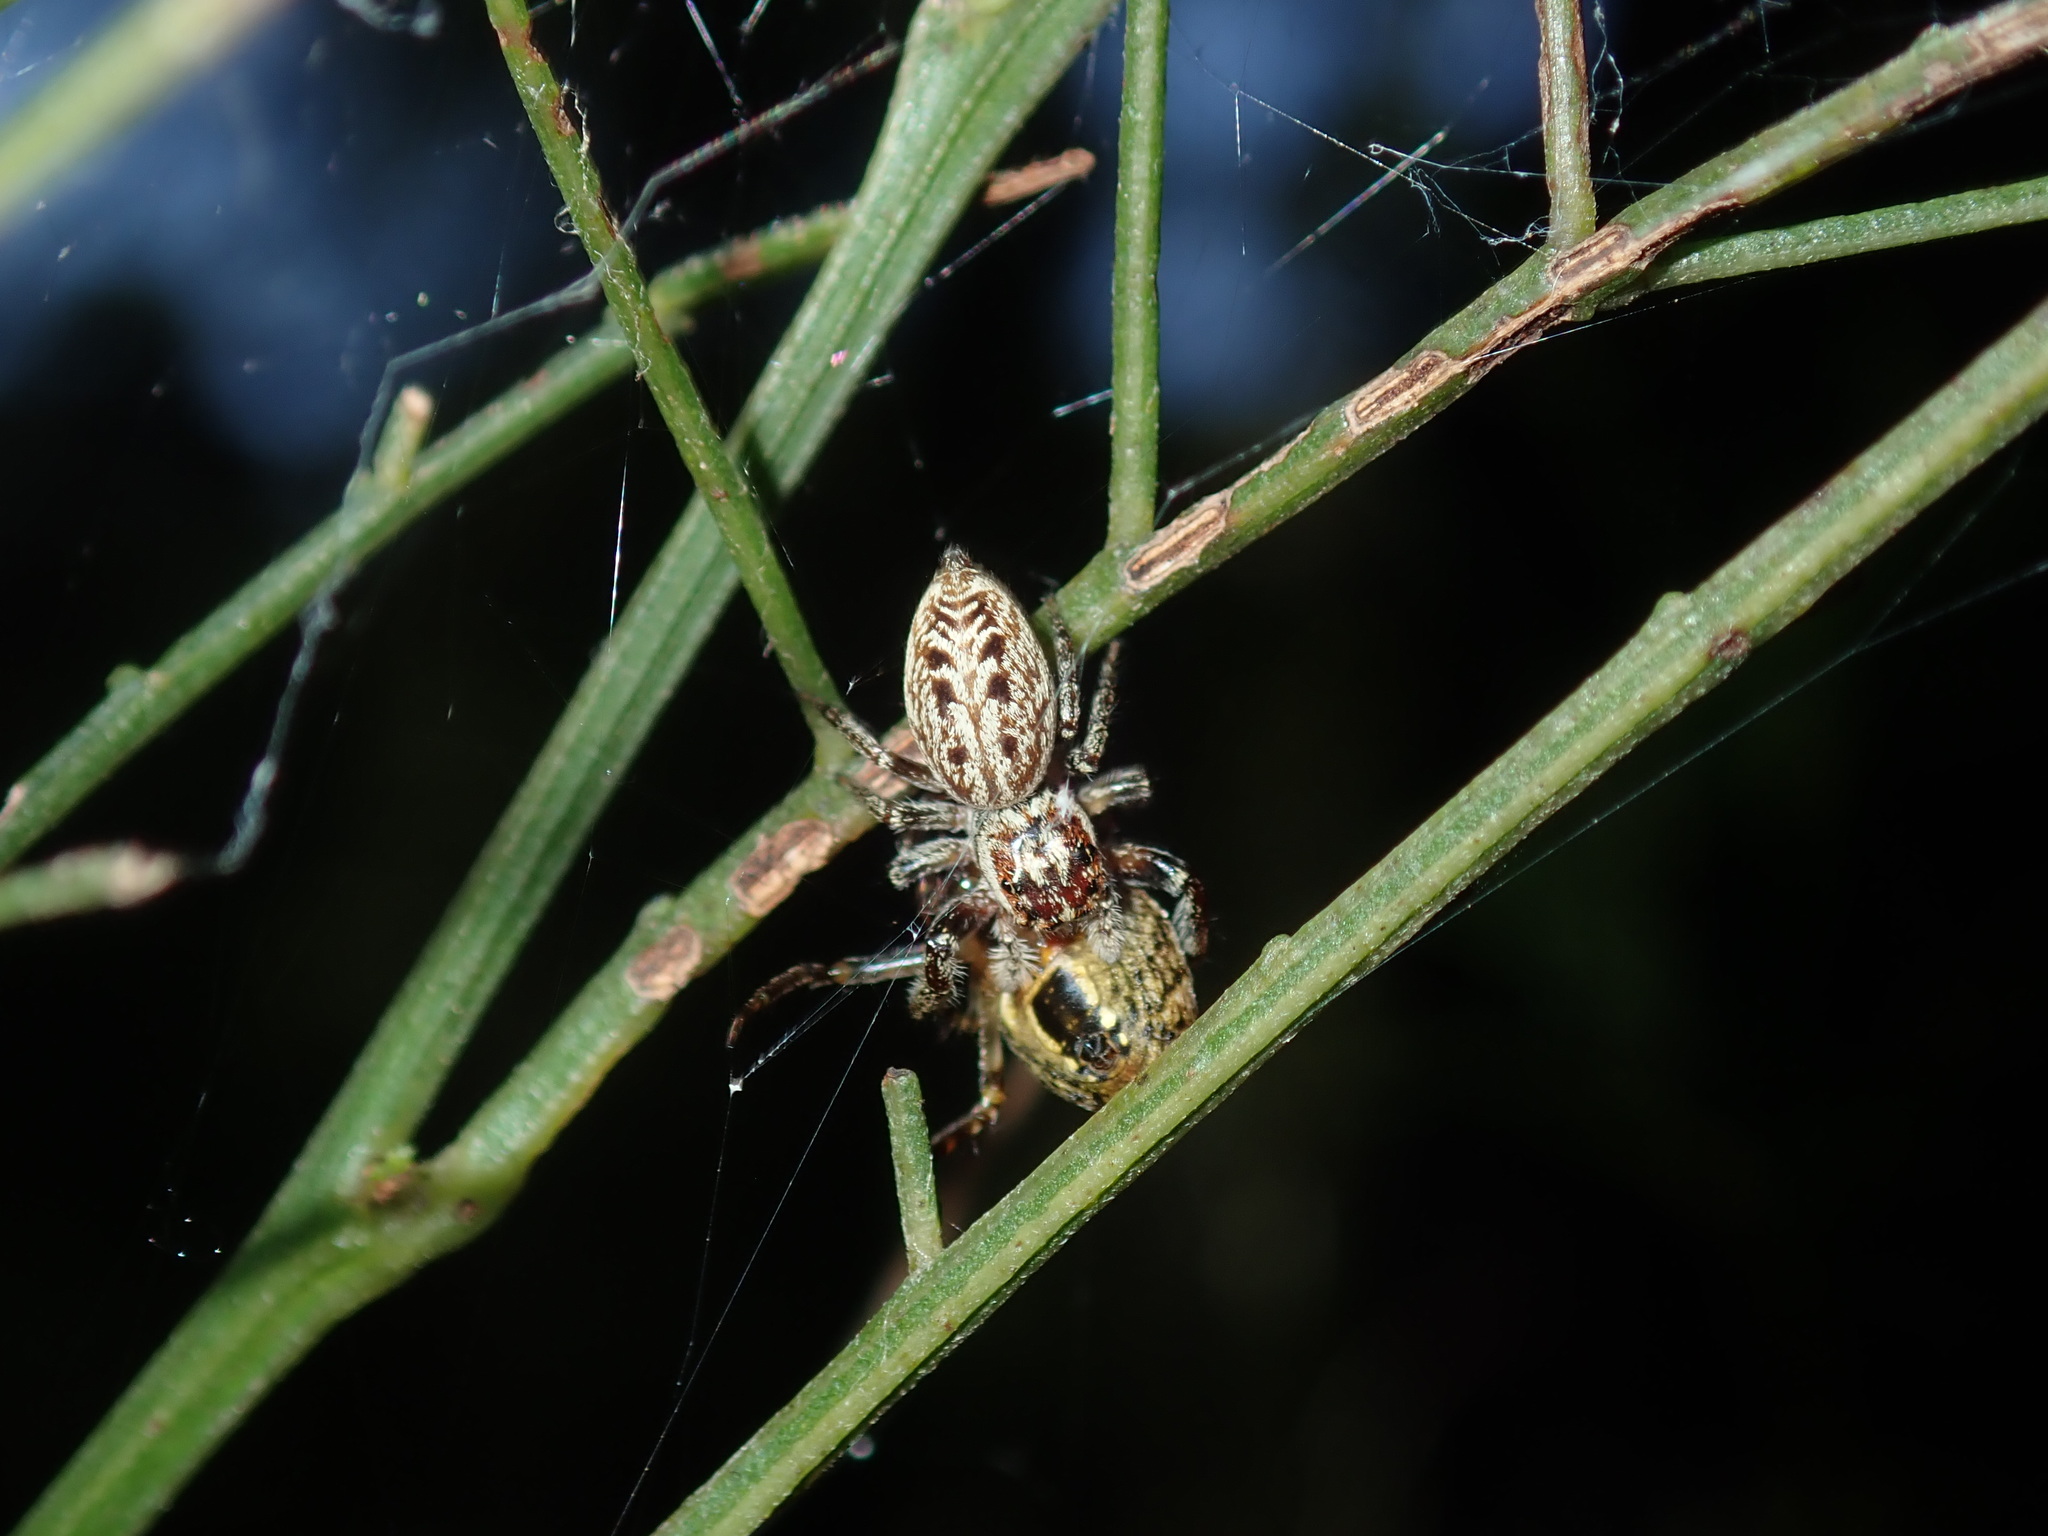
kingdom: Animalia
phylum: Arthropoda
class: Arachnida
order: Araneae
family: Salticidae
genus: Opisthoncus
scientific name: Opisthoncus serratofasciatus
